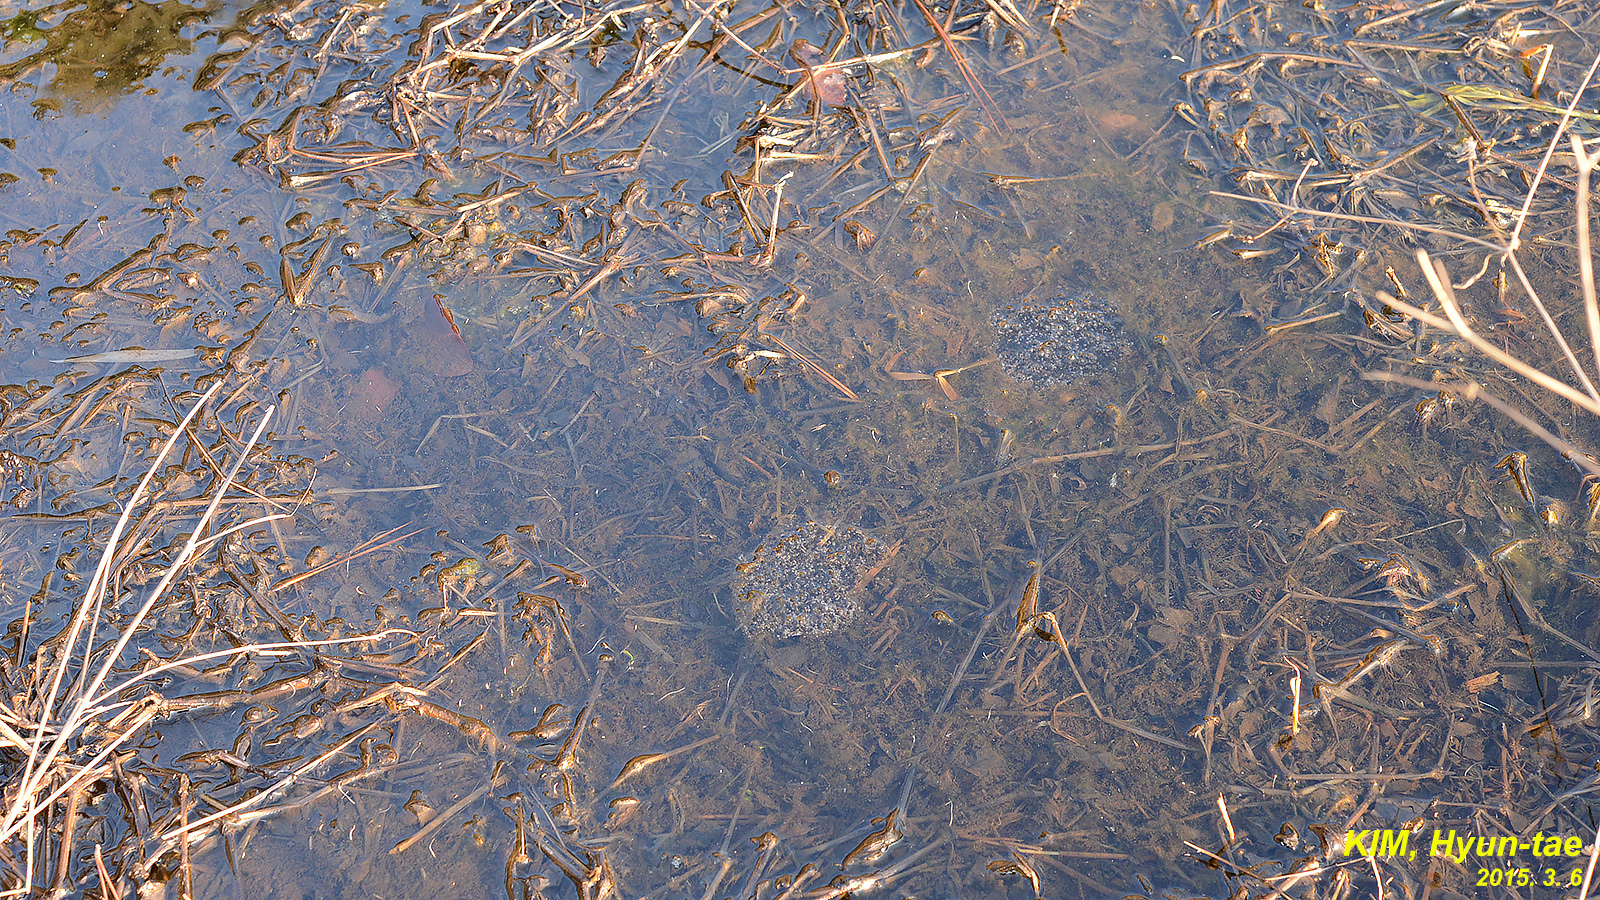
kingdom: Animalia
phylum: Chordata
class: Amphibia
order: Anura
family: Ranidae
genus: Rana
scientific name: Rana coreana
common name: Korean brown frog
